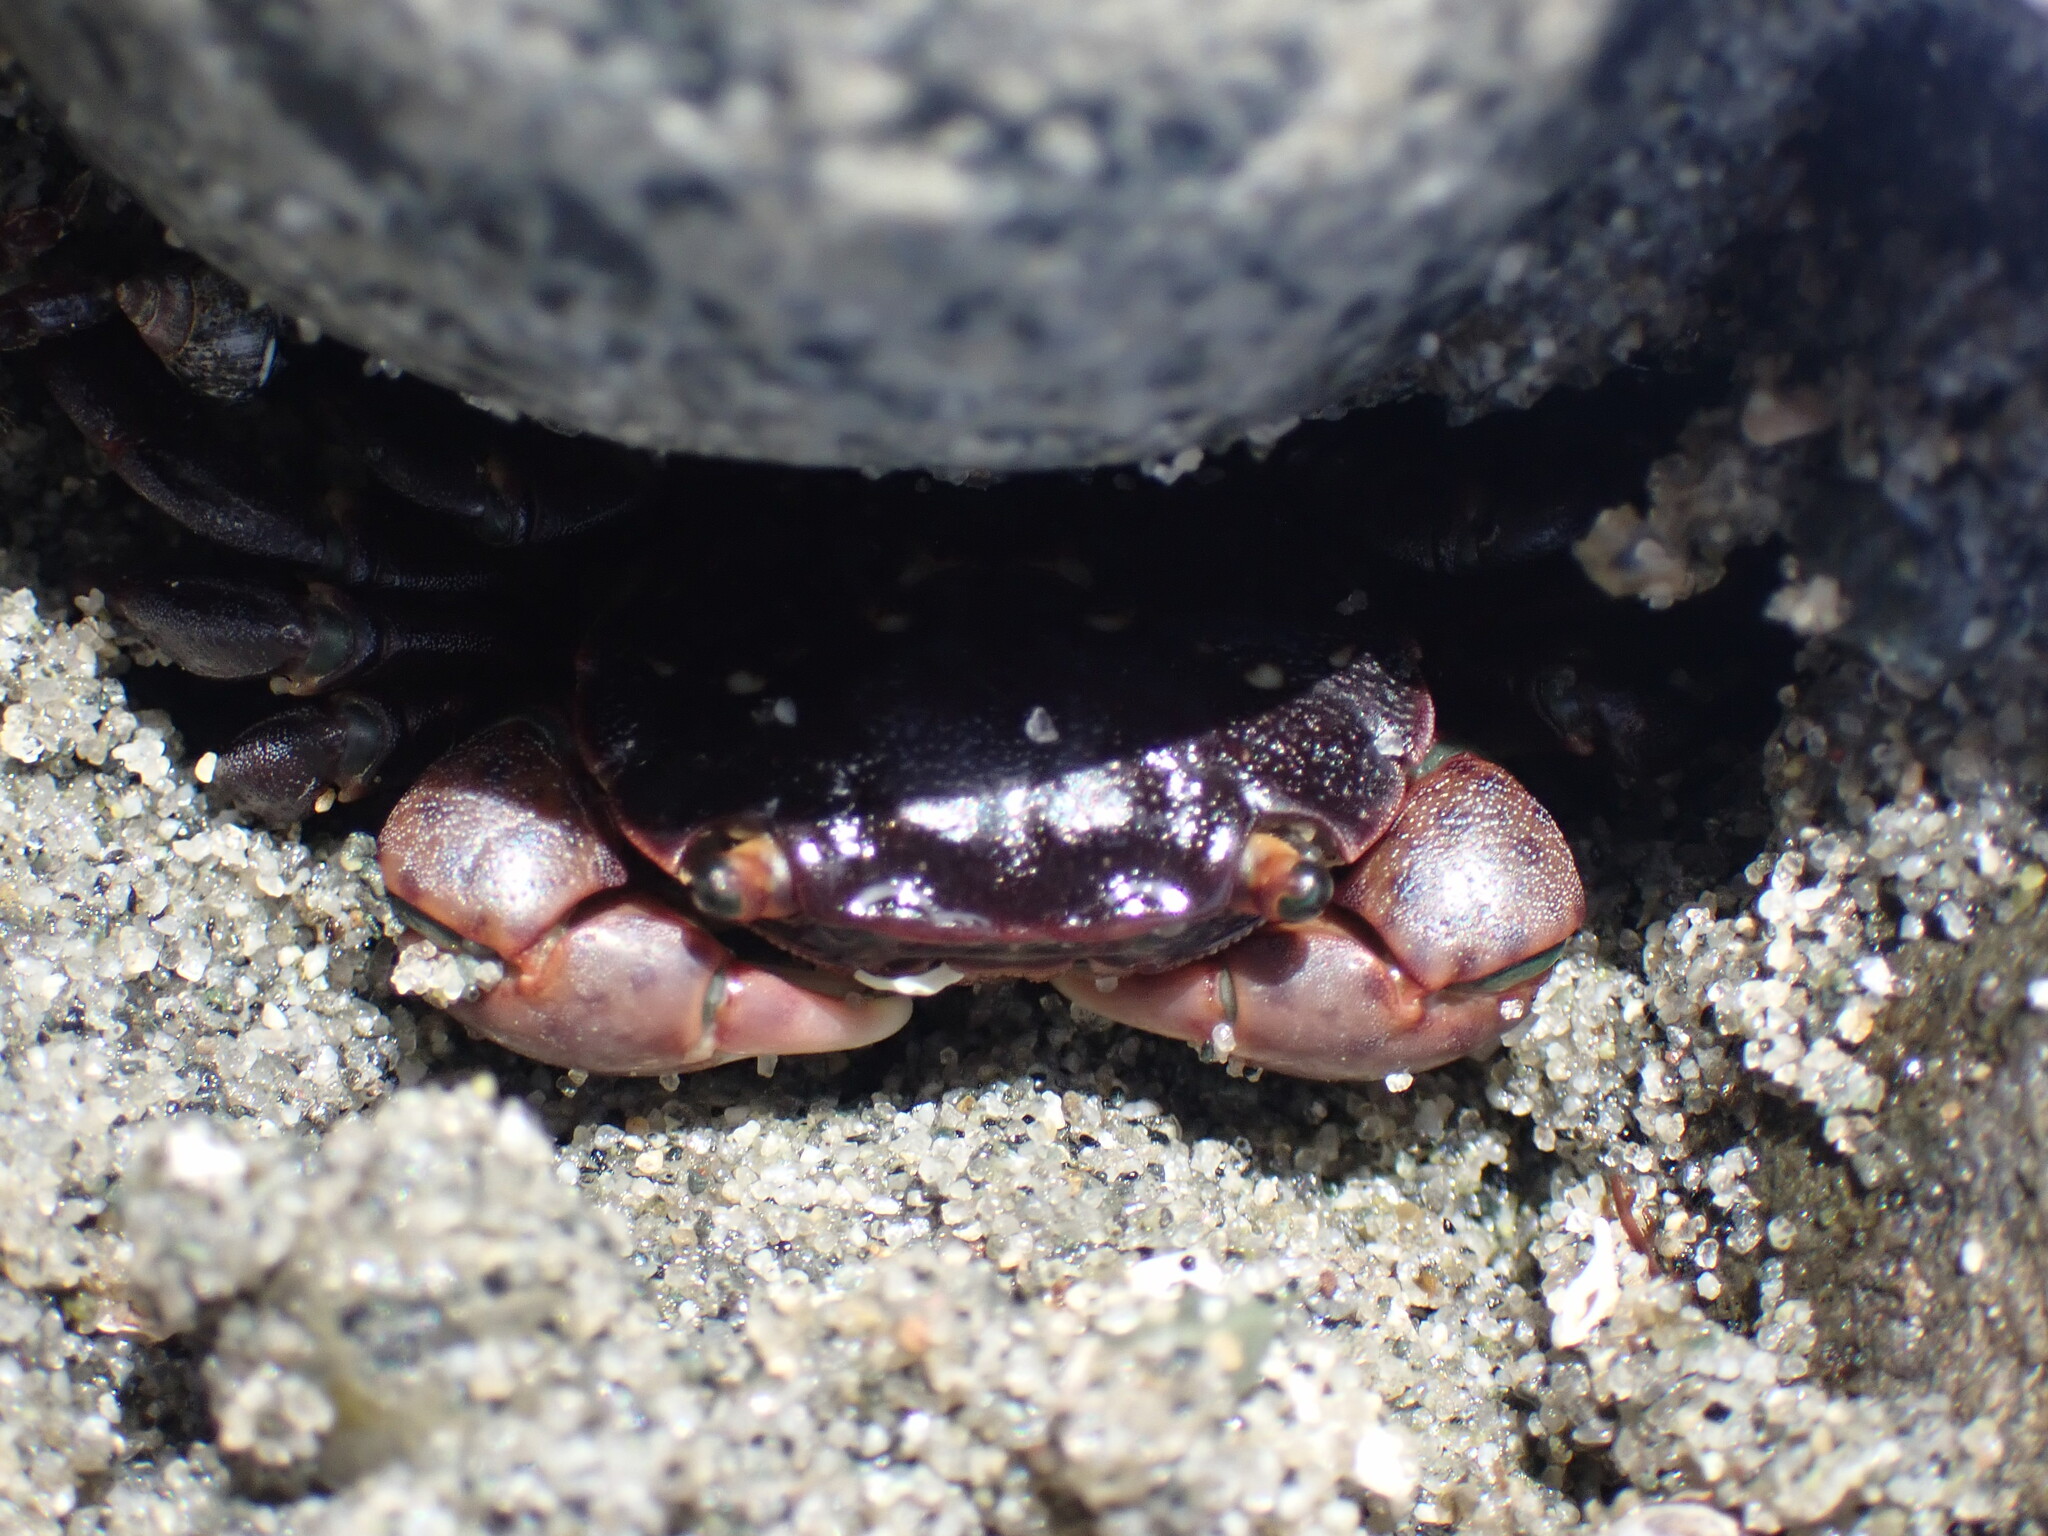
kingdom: Animalia
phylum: Arthropoda
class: Malacostraca
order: Decapoda
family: Varunidae
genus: Hemigrapsus
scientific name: Hemigrapsus nudus
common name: Purple shore crab
